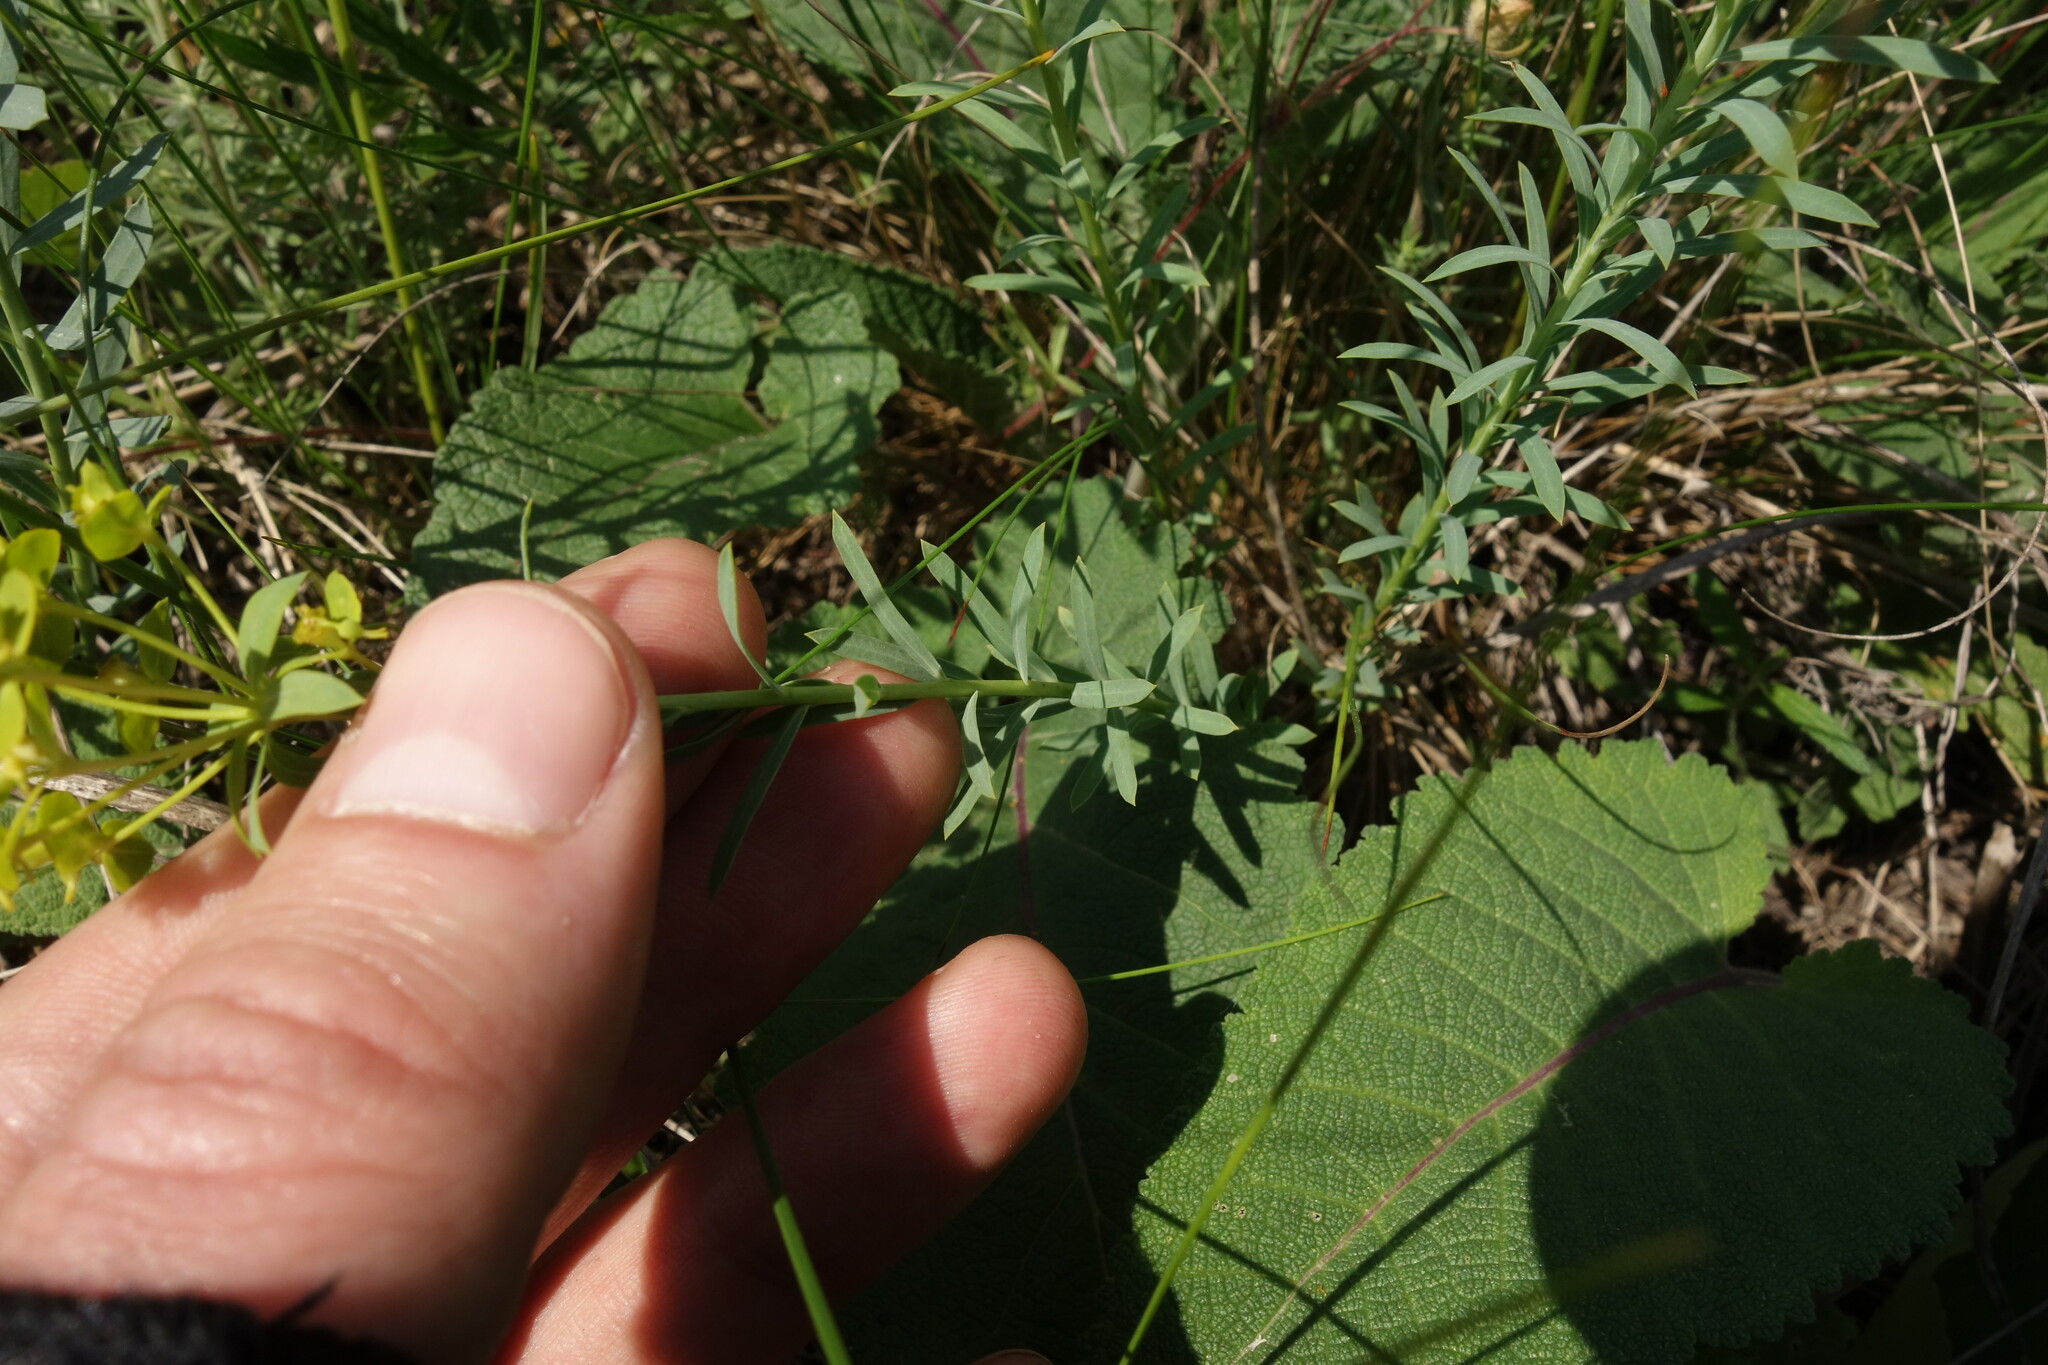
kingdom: Plantae
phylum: Tracheophyta
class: Magnoliopsida
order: Malpighiales
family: Euphorbiaceae
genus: Euphorbia
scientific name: Euphorbia seguieriana
